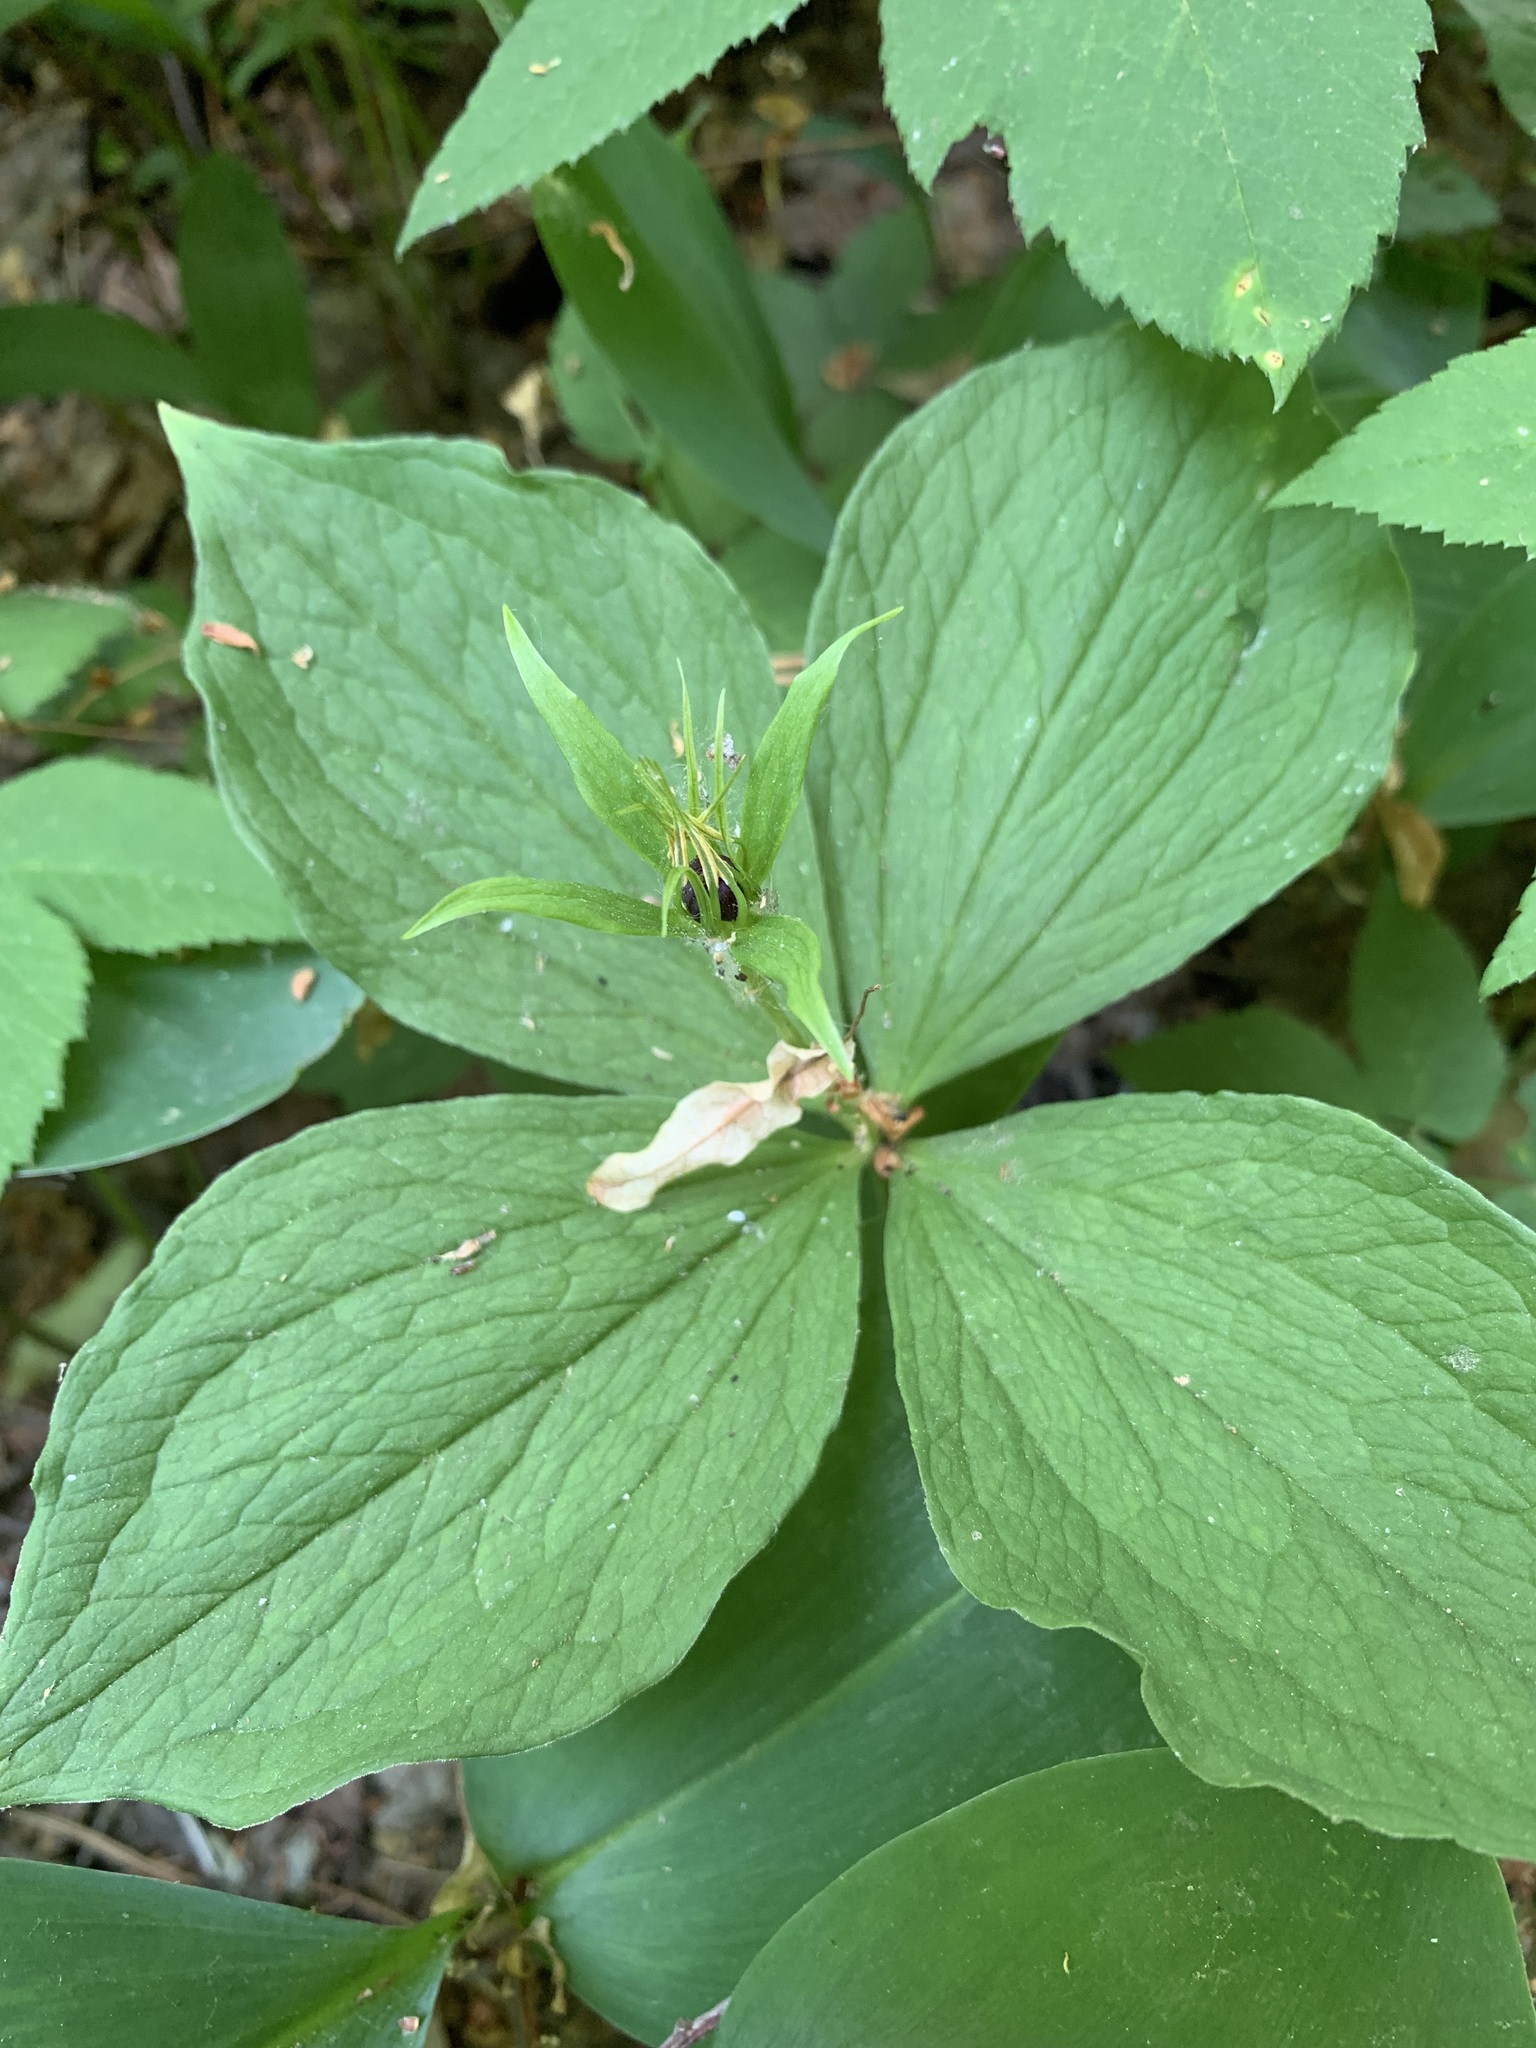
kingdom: Plantae
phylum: Tracheophyta
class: Liliopsida
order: Liliales
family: Melanthiaceae
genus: Paris
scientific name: Paris quadrifolia
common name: Herb-paris
